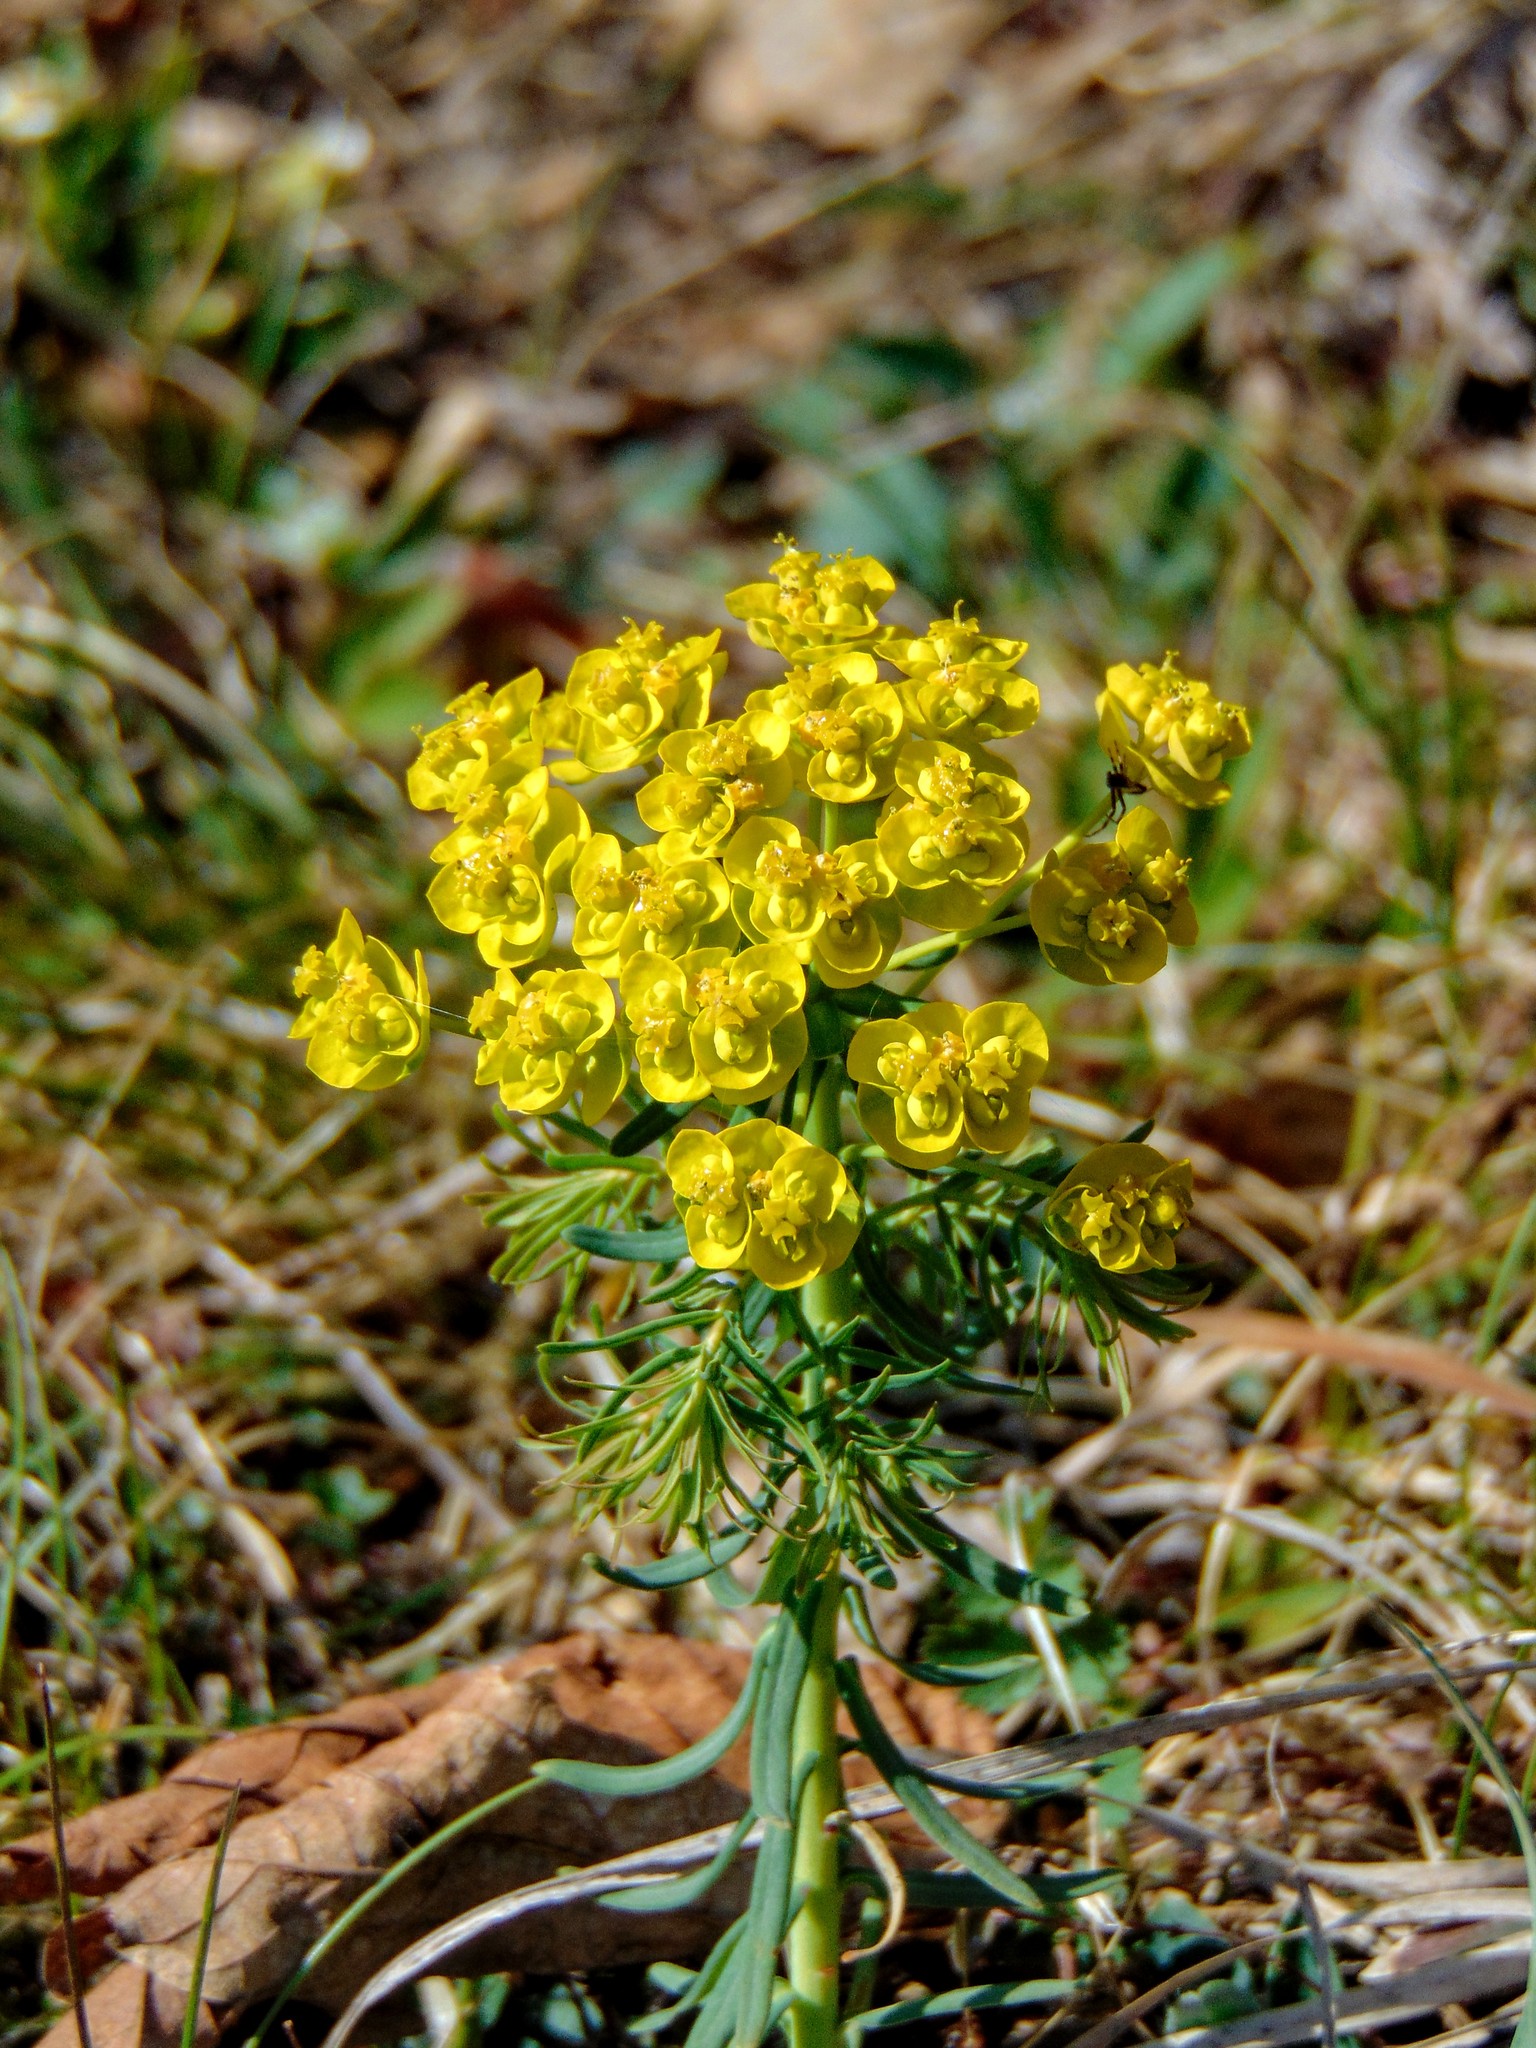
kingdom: Plantae
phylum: Tracheophyta
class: Magnoliopsida
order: Malpighiales
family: Euphorbiaceae
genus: Euphorbia
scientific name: Euphorbia cyparissias
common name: Cypress spurge
